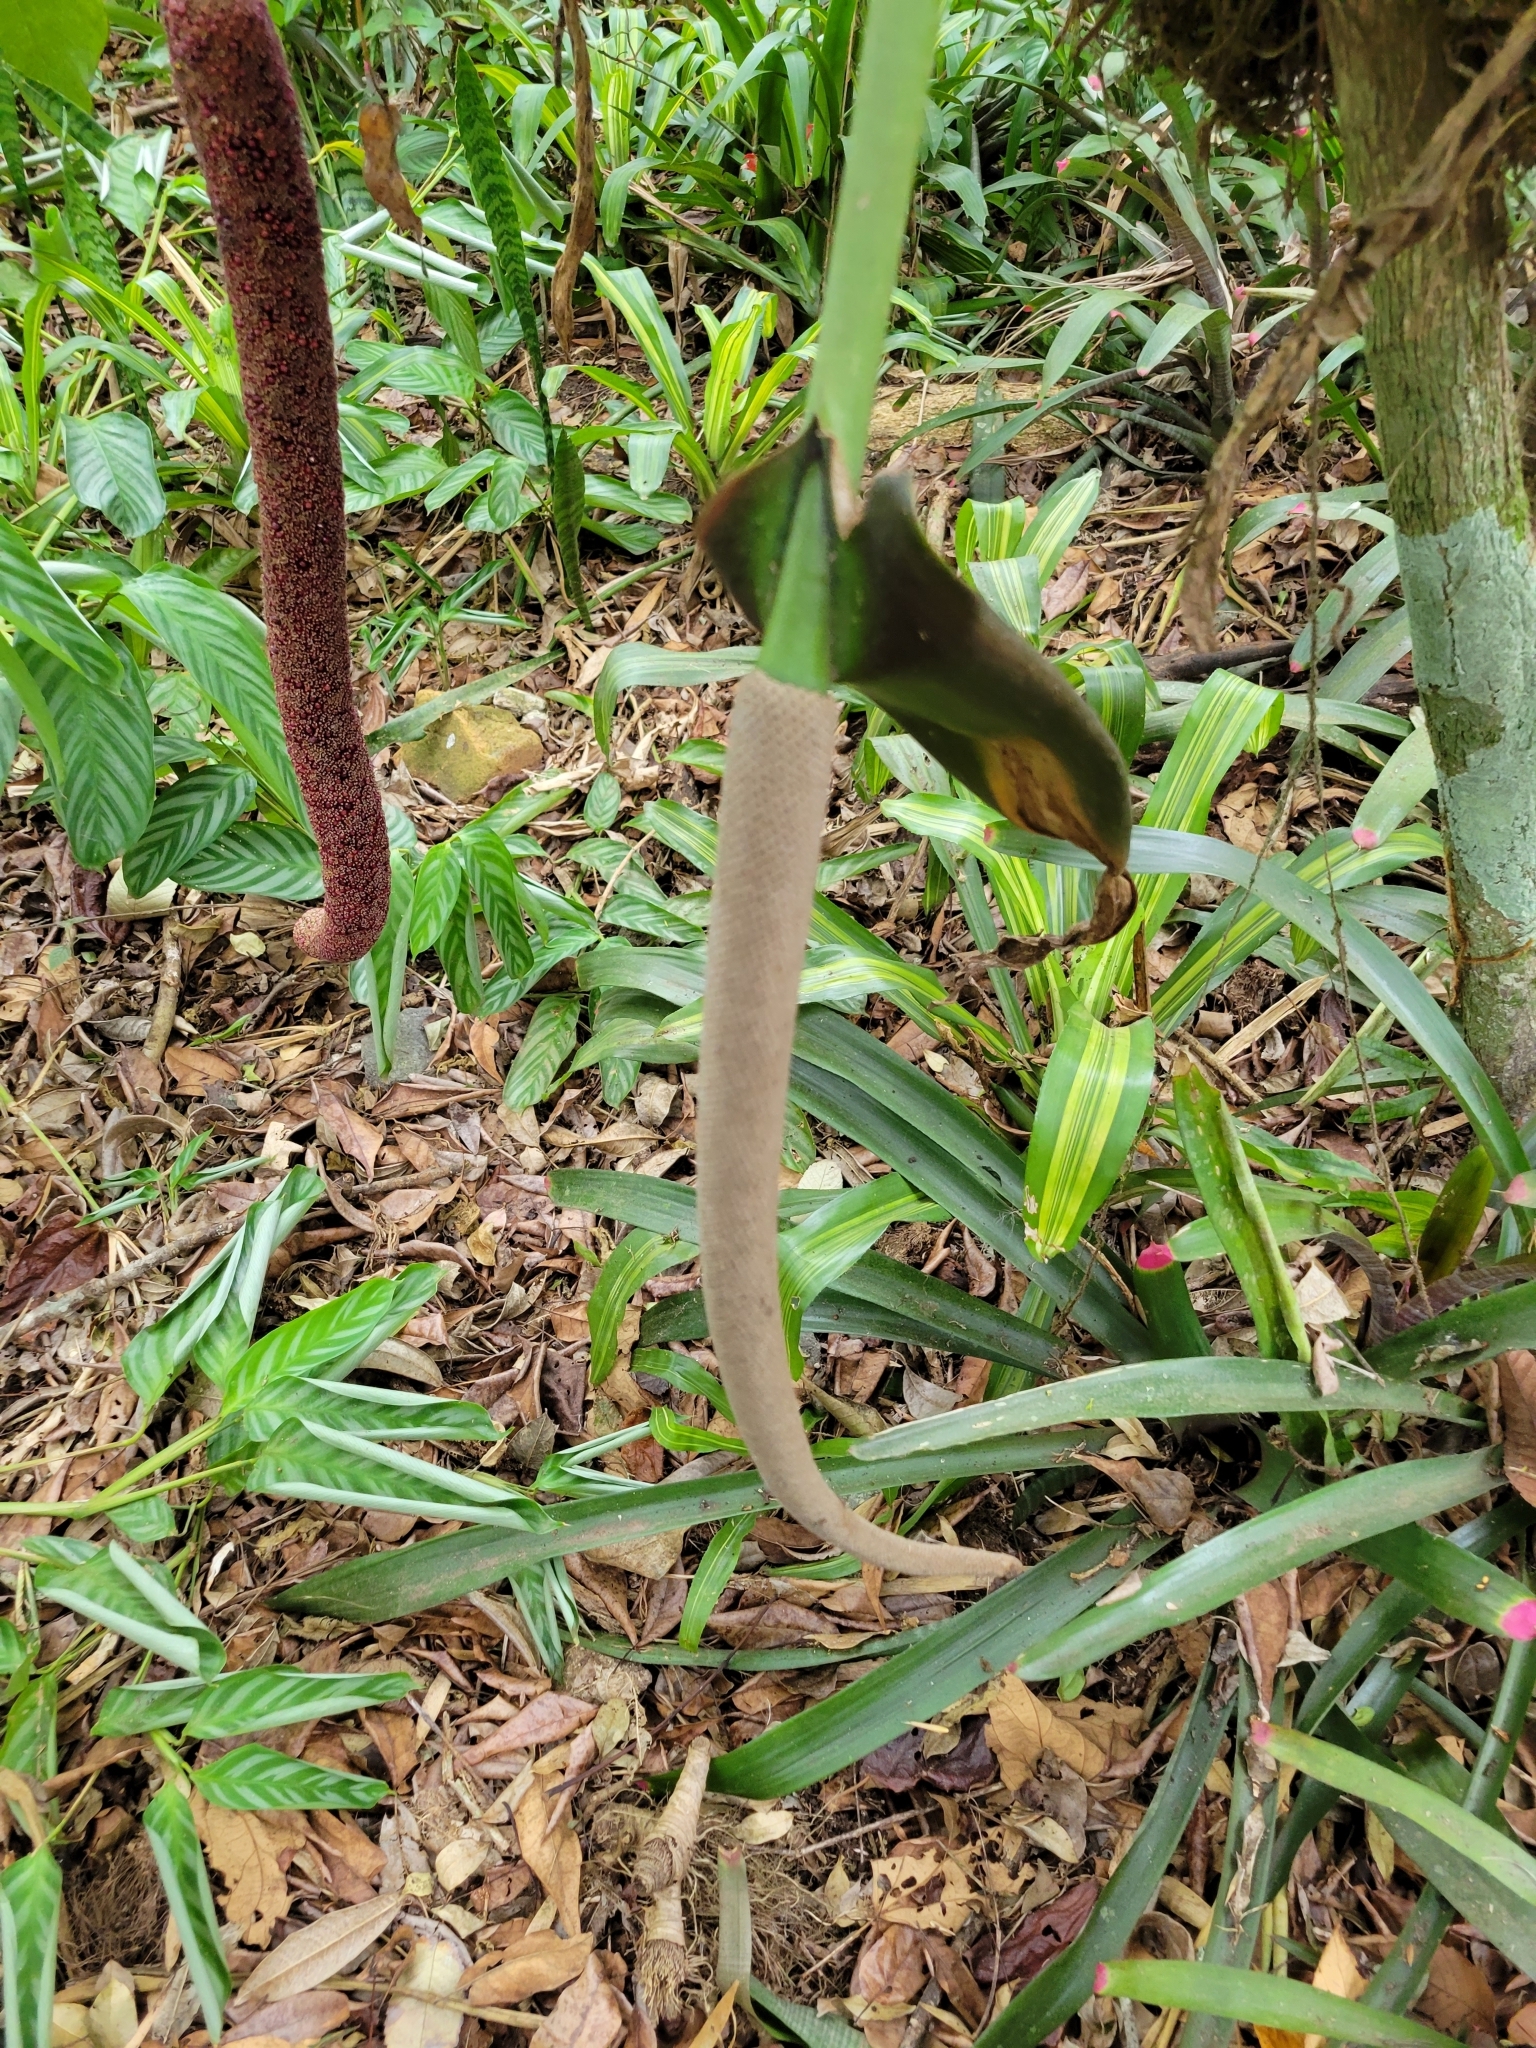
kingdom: Plantae
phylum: Tracheophyta
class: Liliopsida
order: Alismatales
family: Araceae
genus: Anthurium
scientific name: Anthurium salvinii
